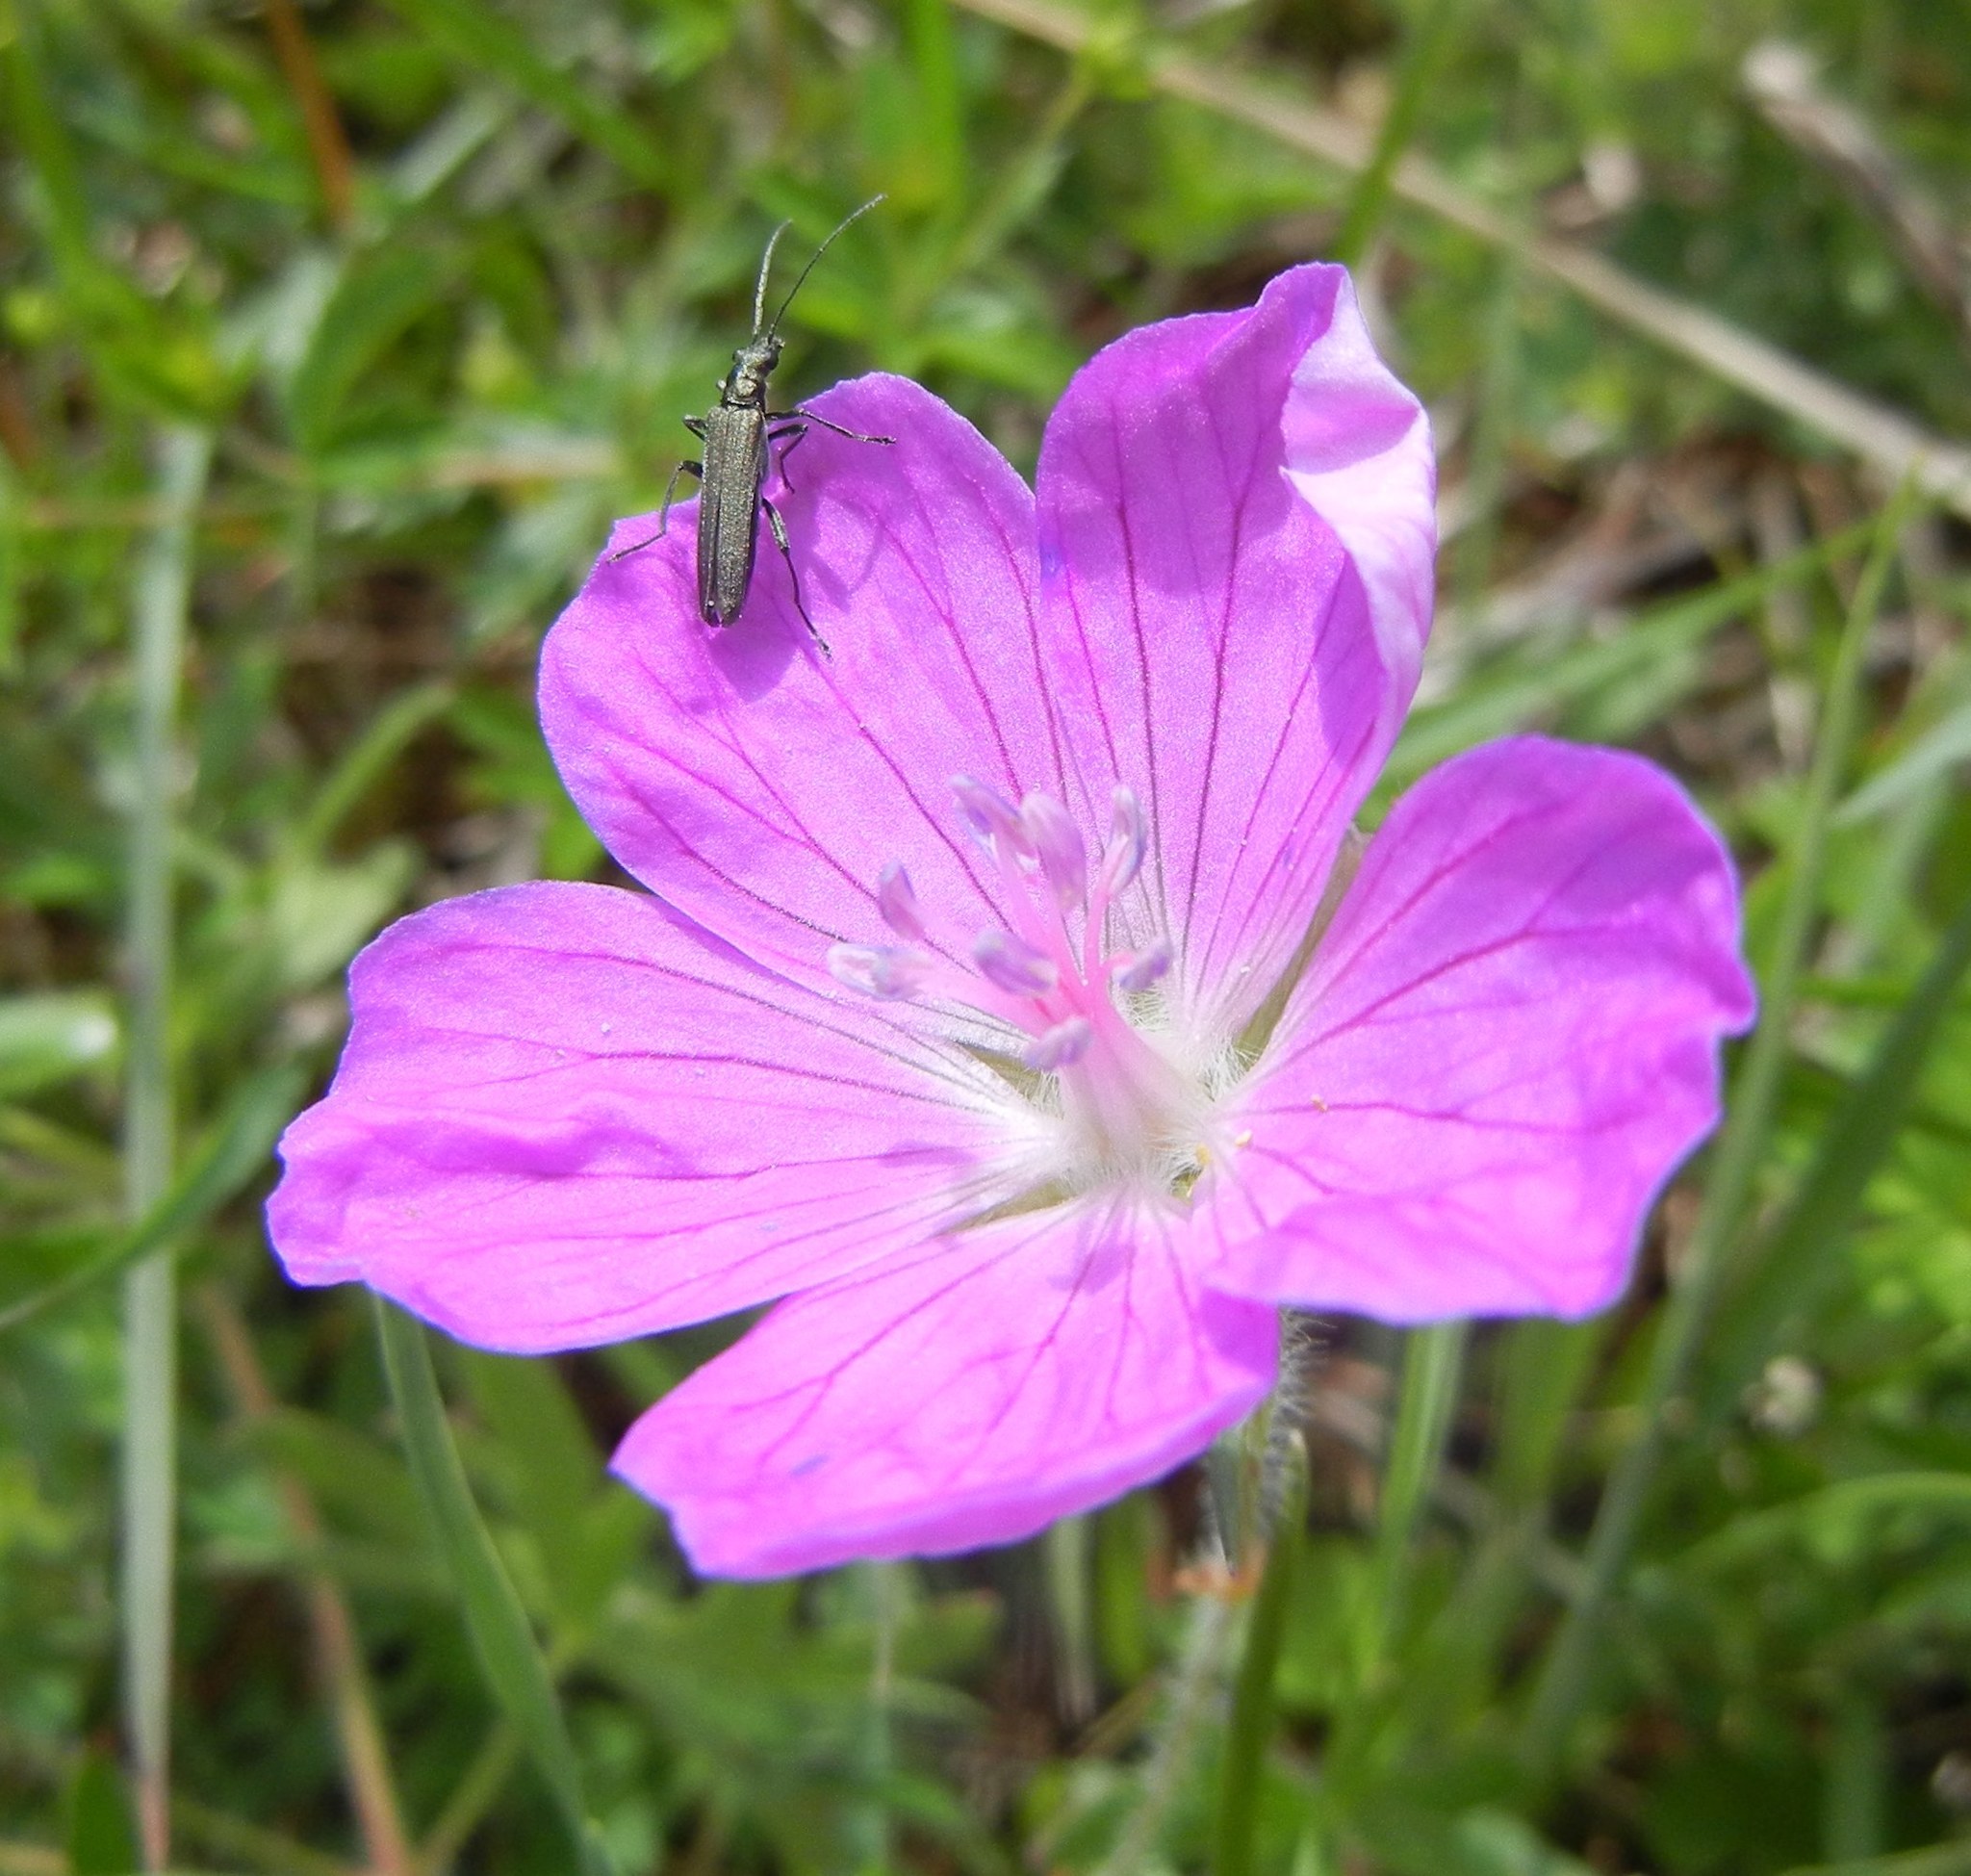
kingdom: Plantae
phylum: Tracheophyta
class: Magnoliopsida
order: Geraniales
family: Geraniaceae
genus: Geranium
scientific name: Geranium sanguineum
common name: Bloody crane's-bill
